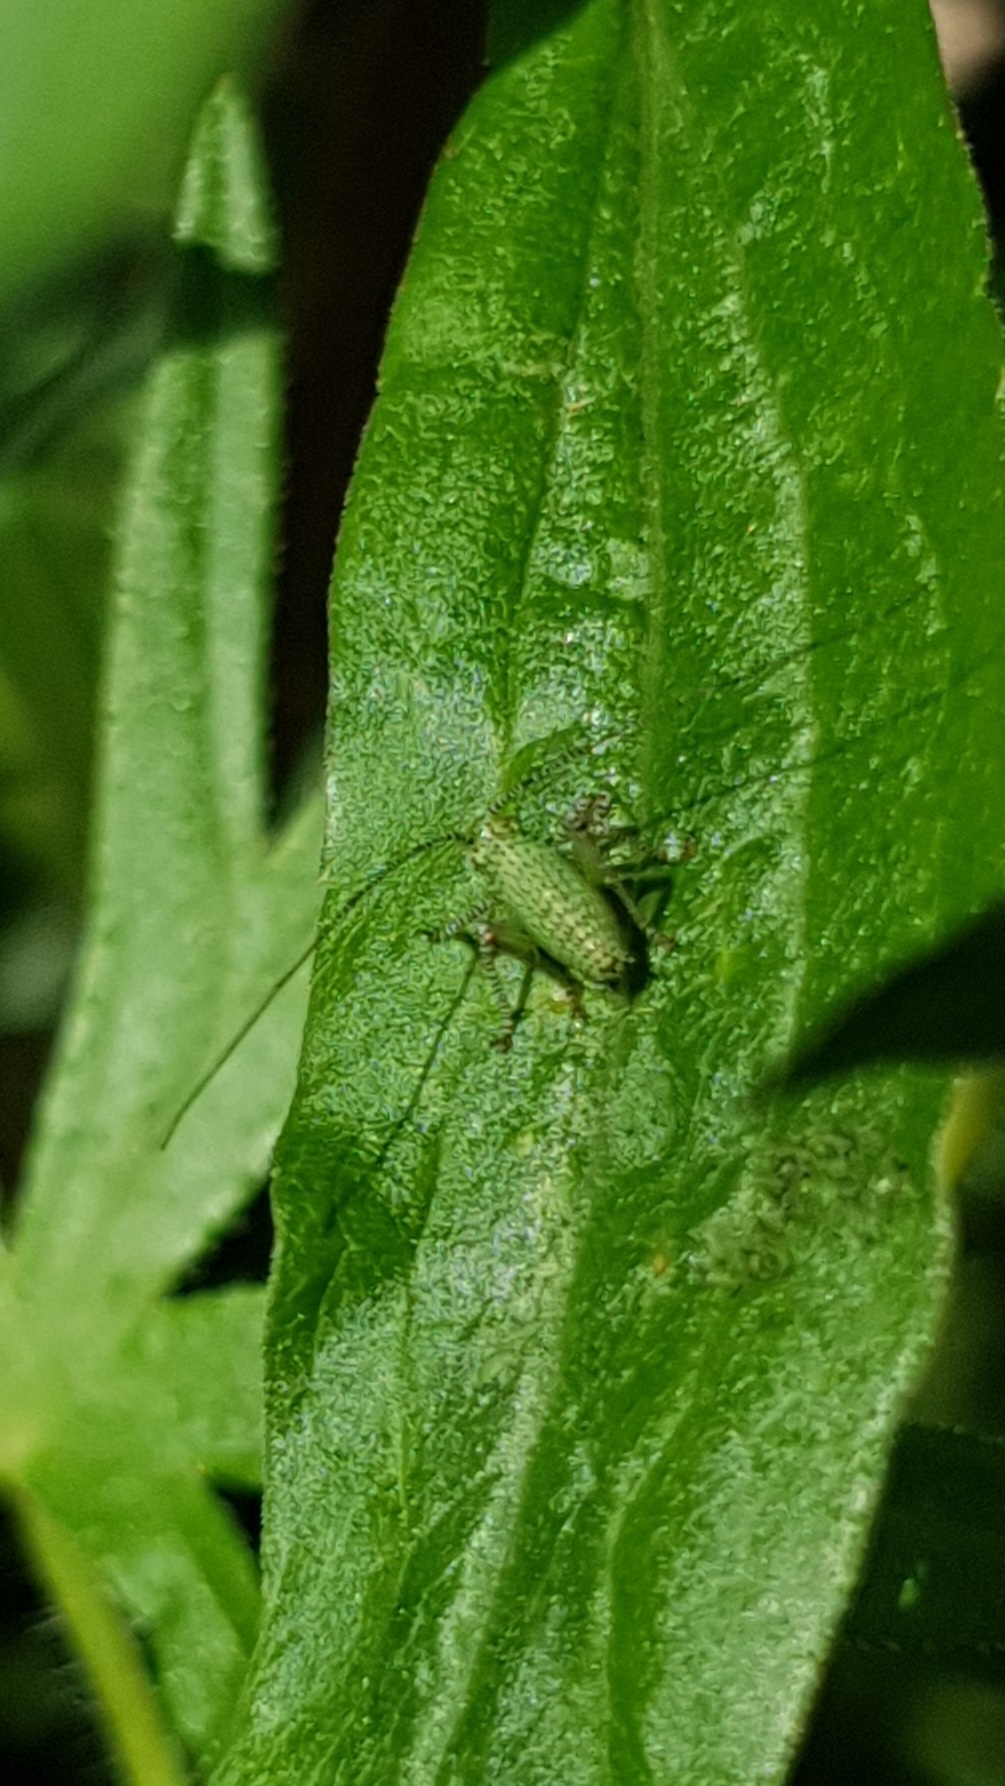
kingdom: Animalia
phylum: Arthropoda
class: Insecta
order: Orthoptera
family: Tettigoniidae
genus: Leptophyes
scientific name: Leptophyes punctatissima
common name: Speckled bush-cricket
